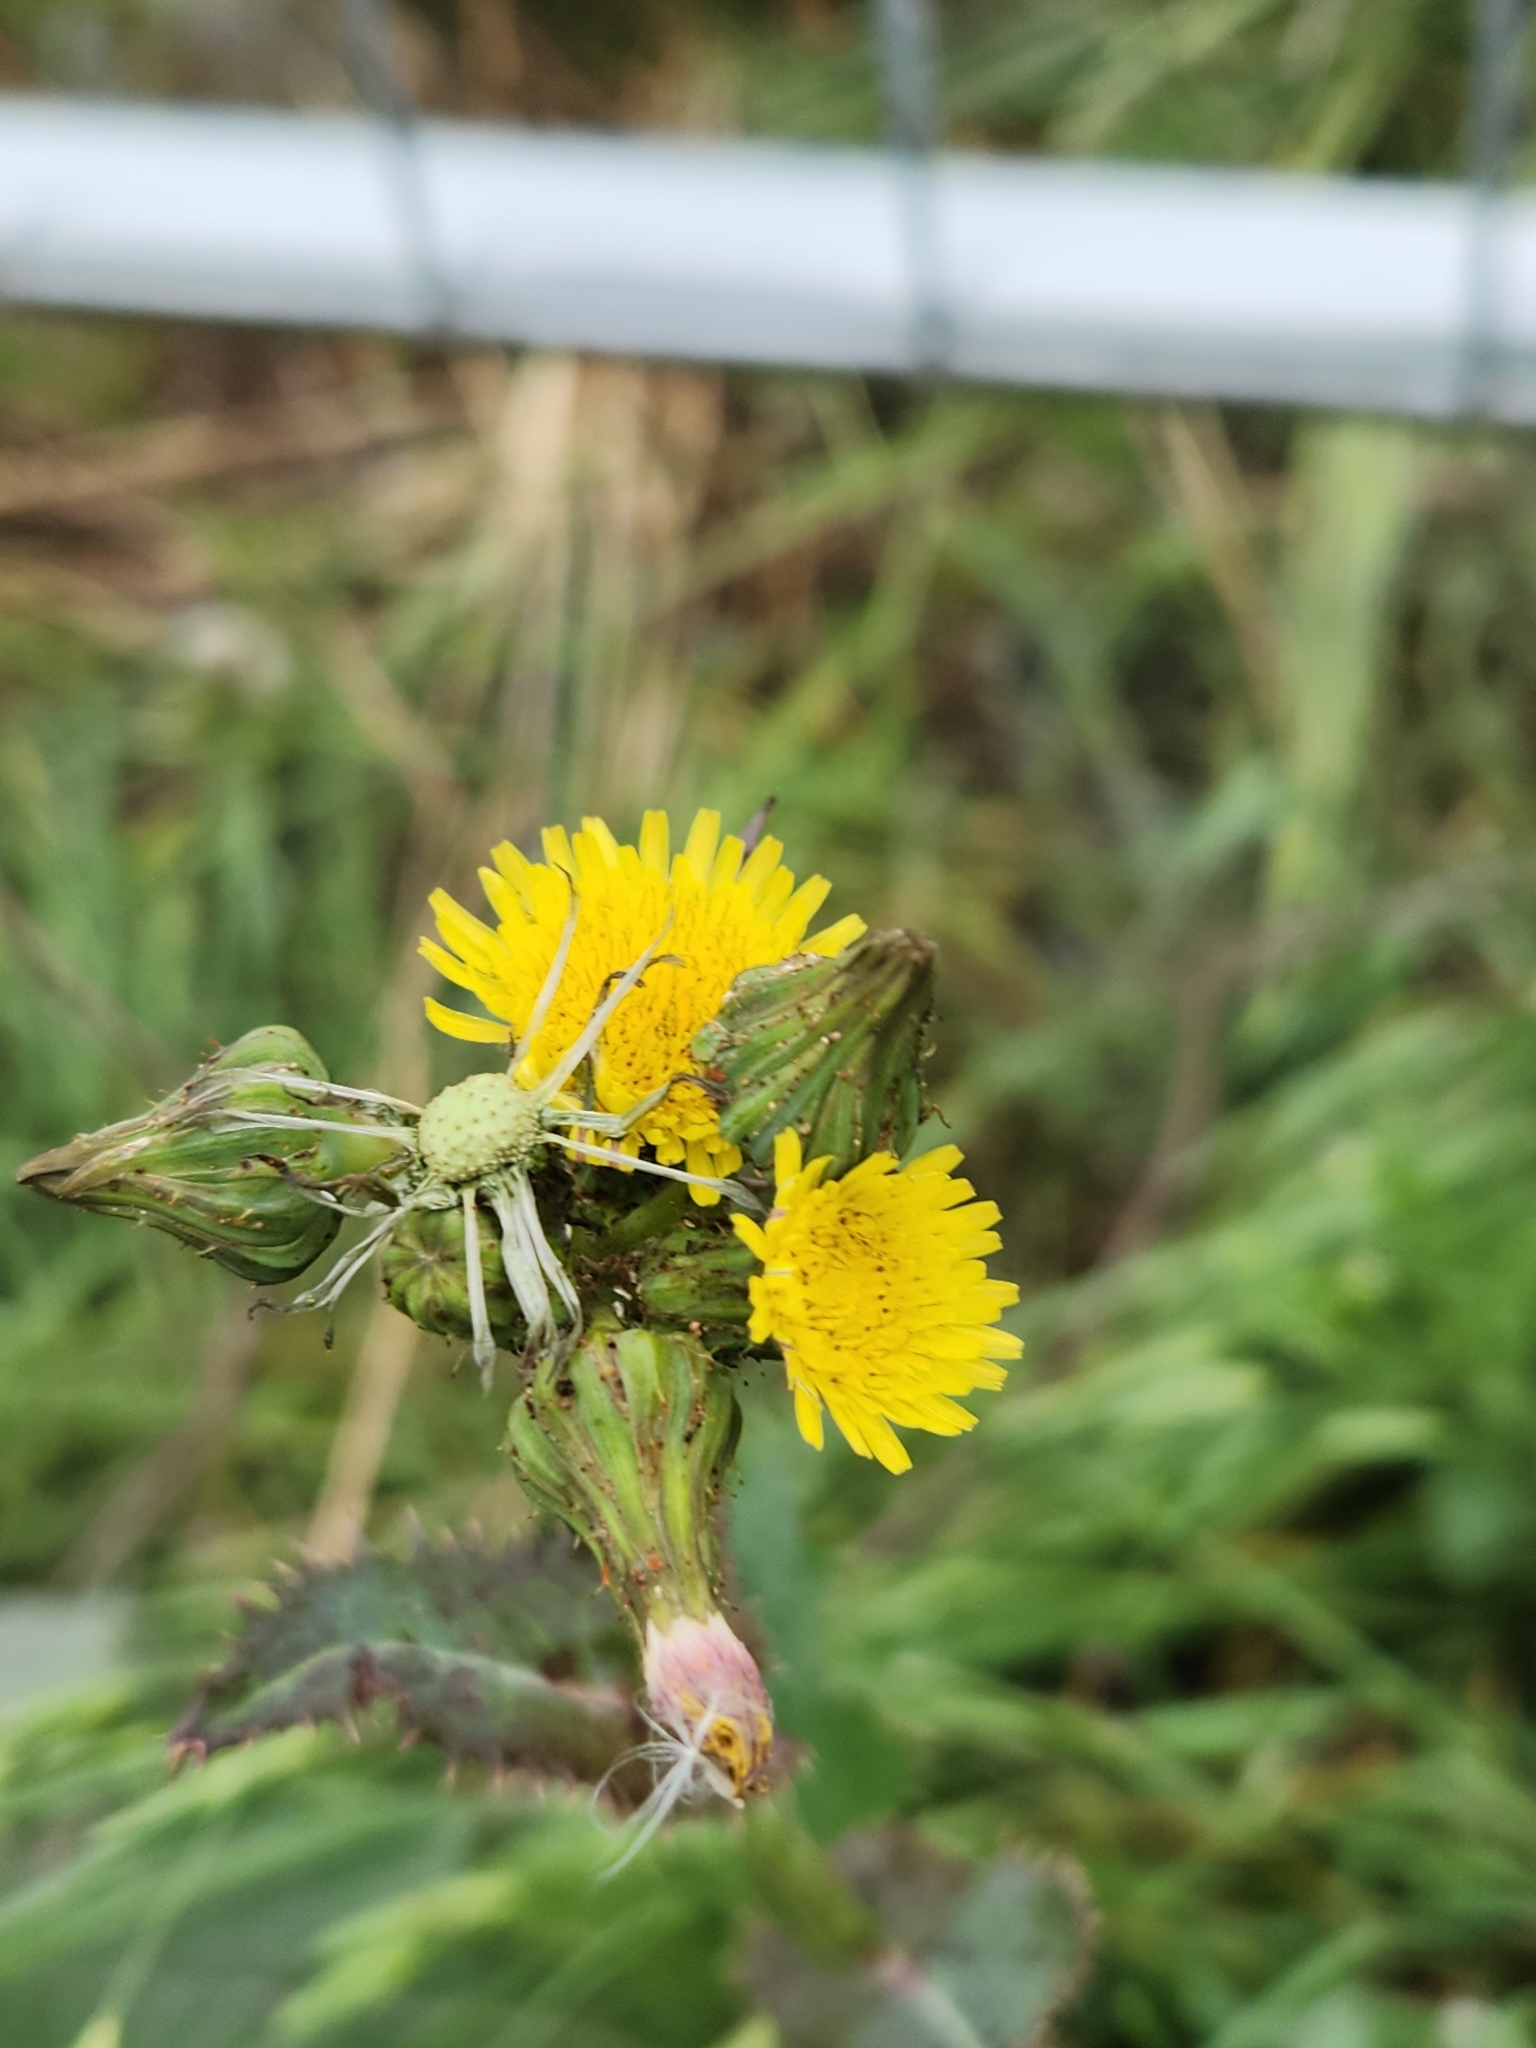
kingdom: Plantae
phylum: Tracheophyta
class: Magnoliopsida
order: Asterales
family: Asteraceae
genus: Sonchus
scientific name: Sonchus asper
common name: Prickly sow-thistle
